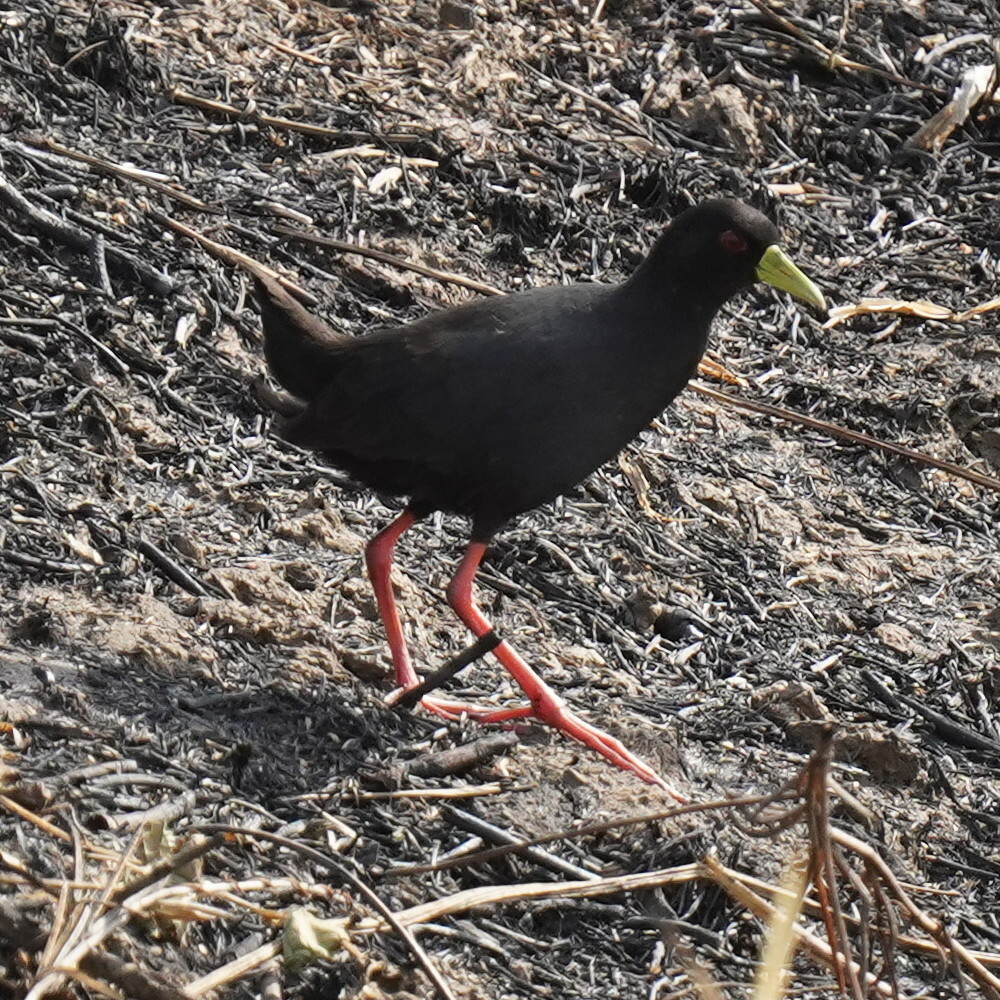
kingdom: Animalia
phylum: Chordata
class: Aves
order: Gruiformes
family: Rallidae
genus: Amaurornis
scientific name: Amaurornis flavirostra
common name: Black crake
